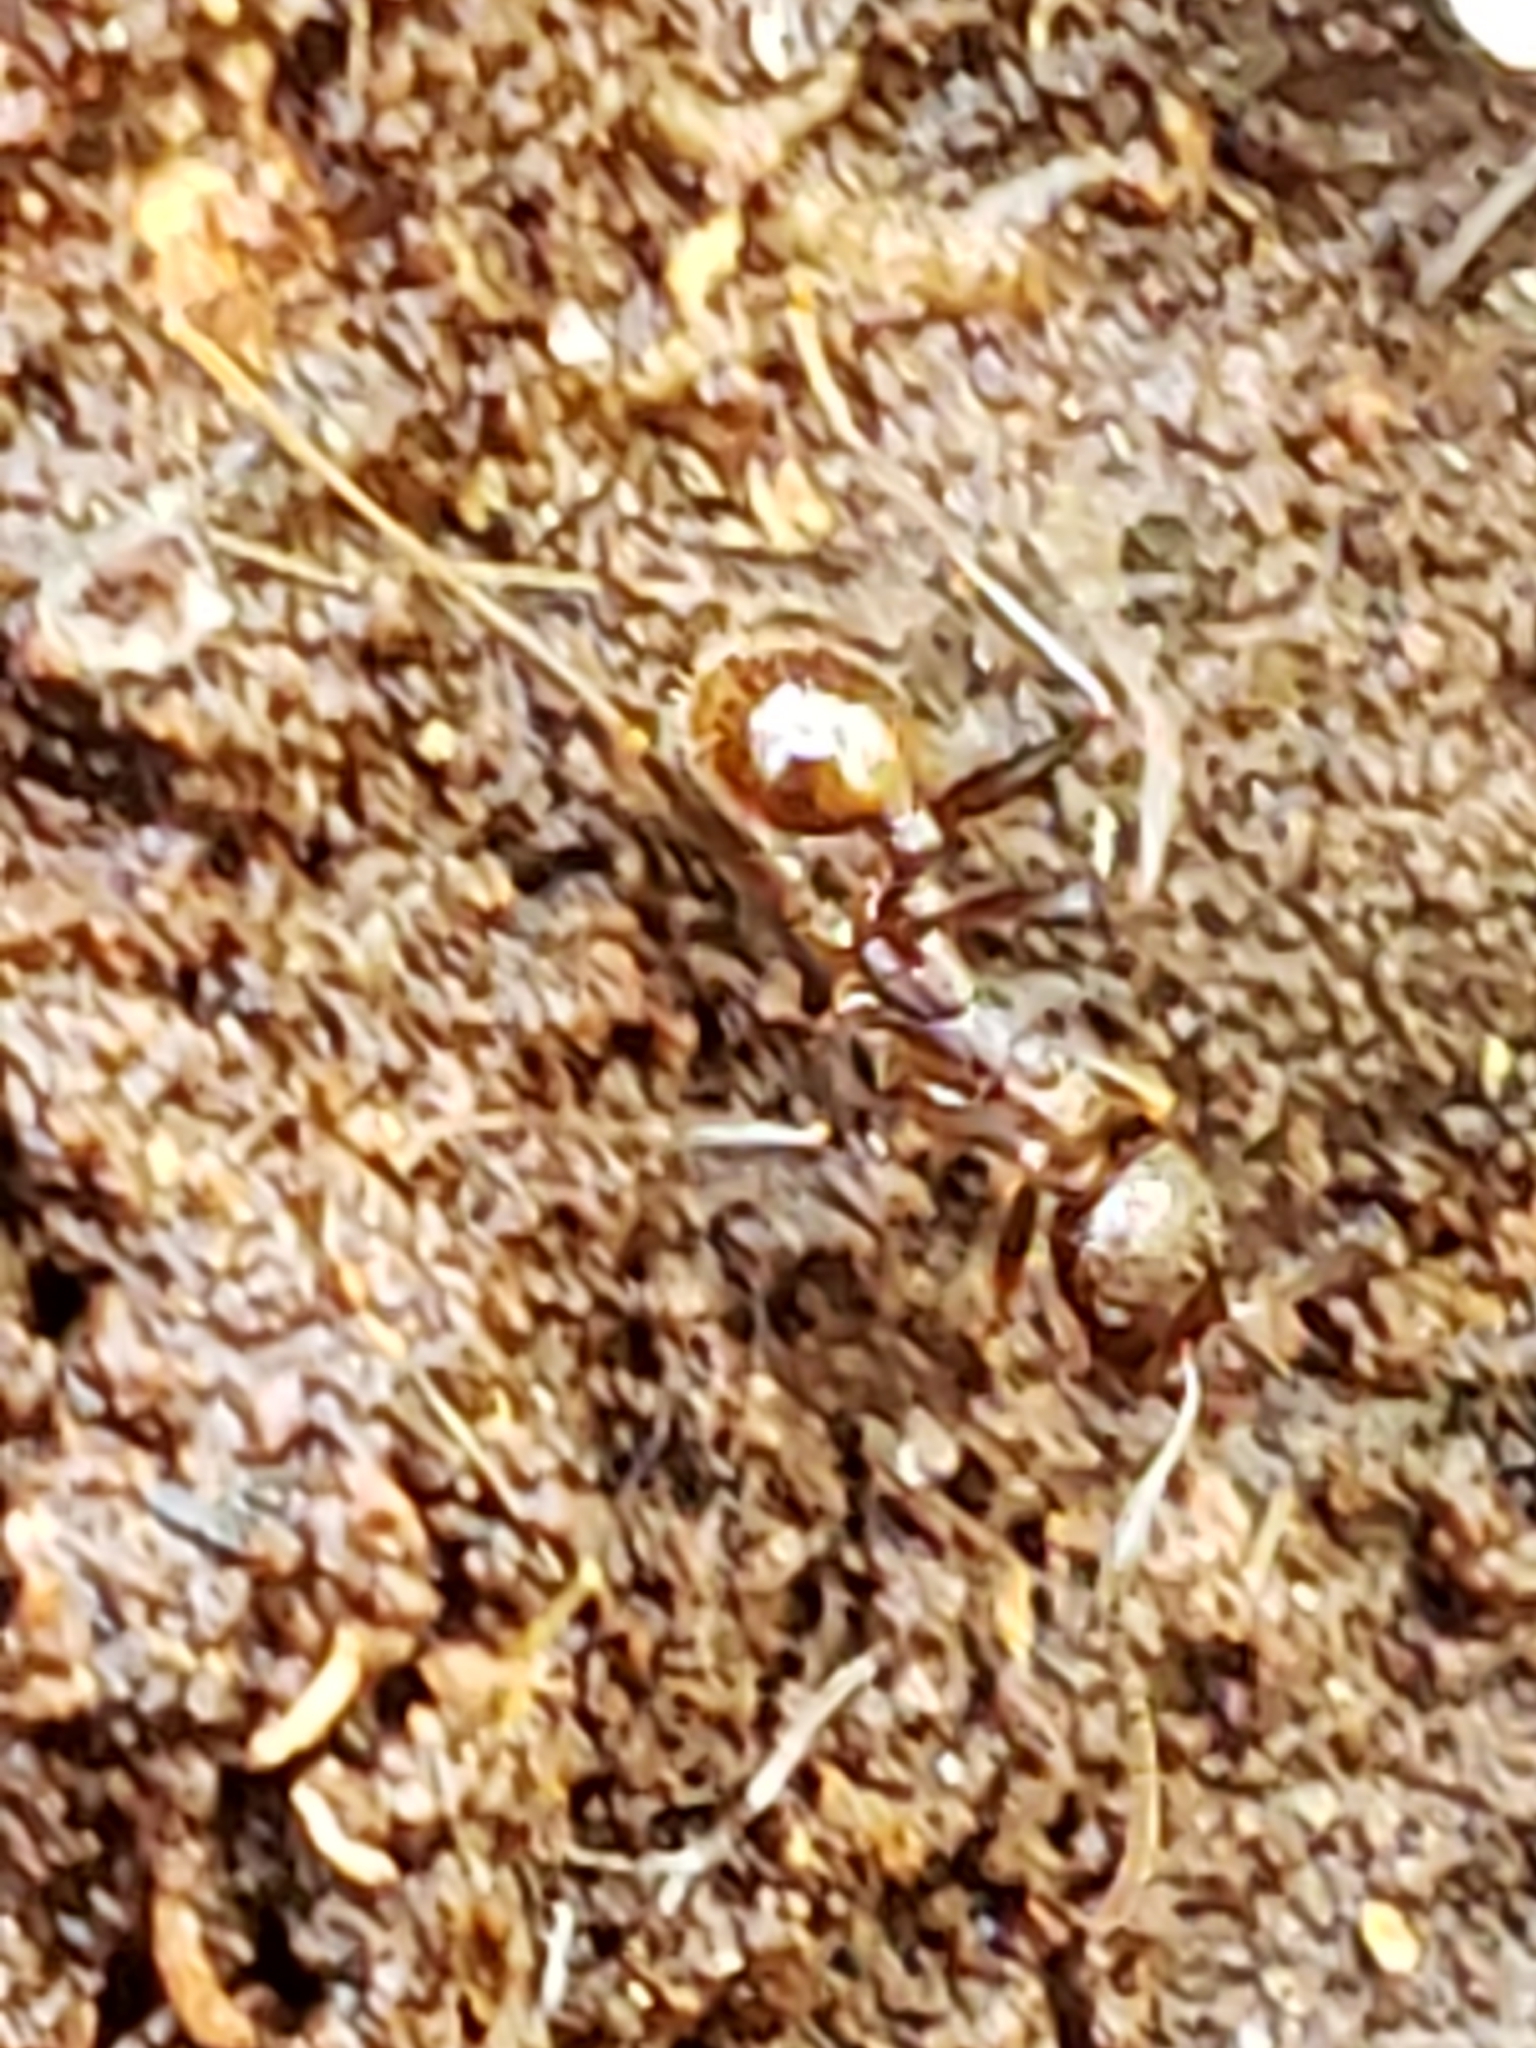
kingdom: Animalia
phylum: Arthropoda
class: Insecta
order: Hymenoptera
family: Formicidae
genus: Aphaenogaster
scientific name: Aphaenogaster fulva
